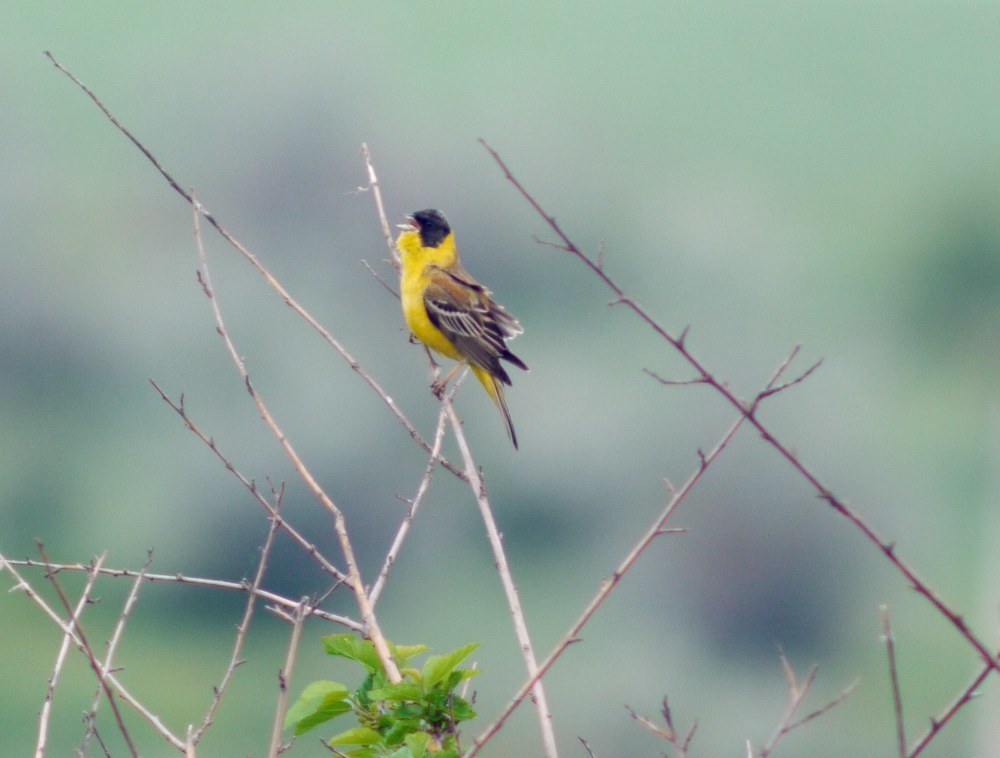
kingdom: Animalia
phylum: Chordata
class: Aves
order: Passeriformes
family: Emberizidae
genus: Emberiza
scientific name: Emberiza melanocephala
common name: Black-headed bunting
